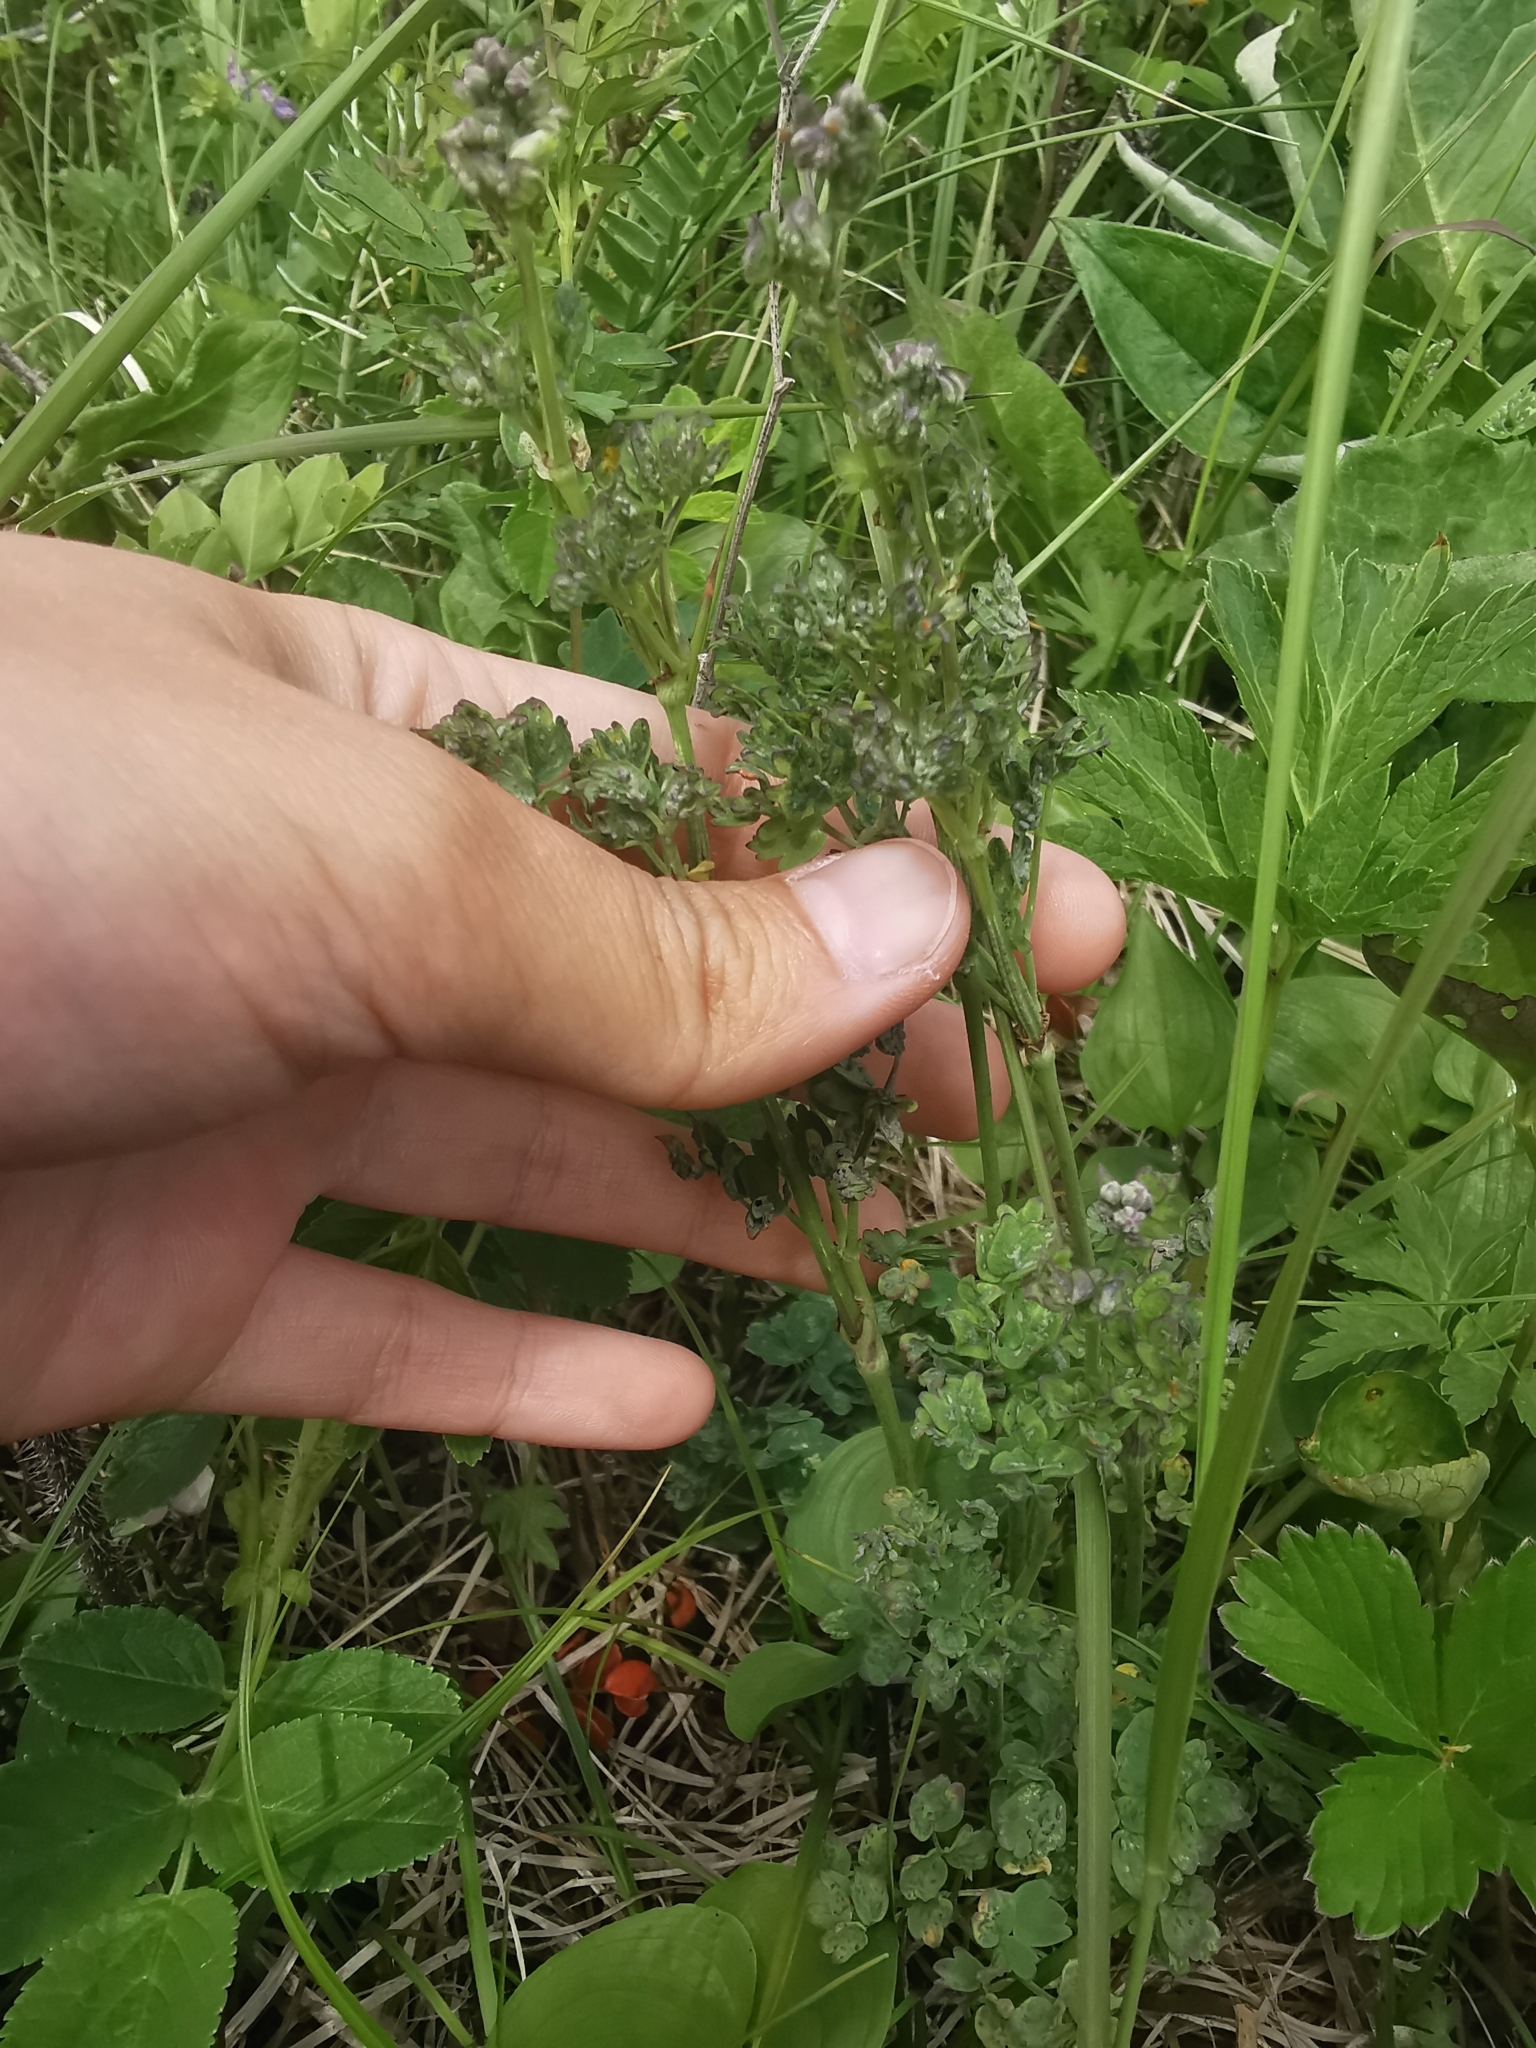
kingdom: Plantae
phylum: Tracheophyta
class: Magnoliopsida
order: Ranunculales
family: Ranunculaceae
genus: Thalictrum
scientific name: Thalictrum minus
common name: Lesser meadow-rue
